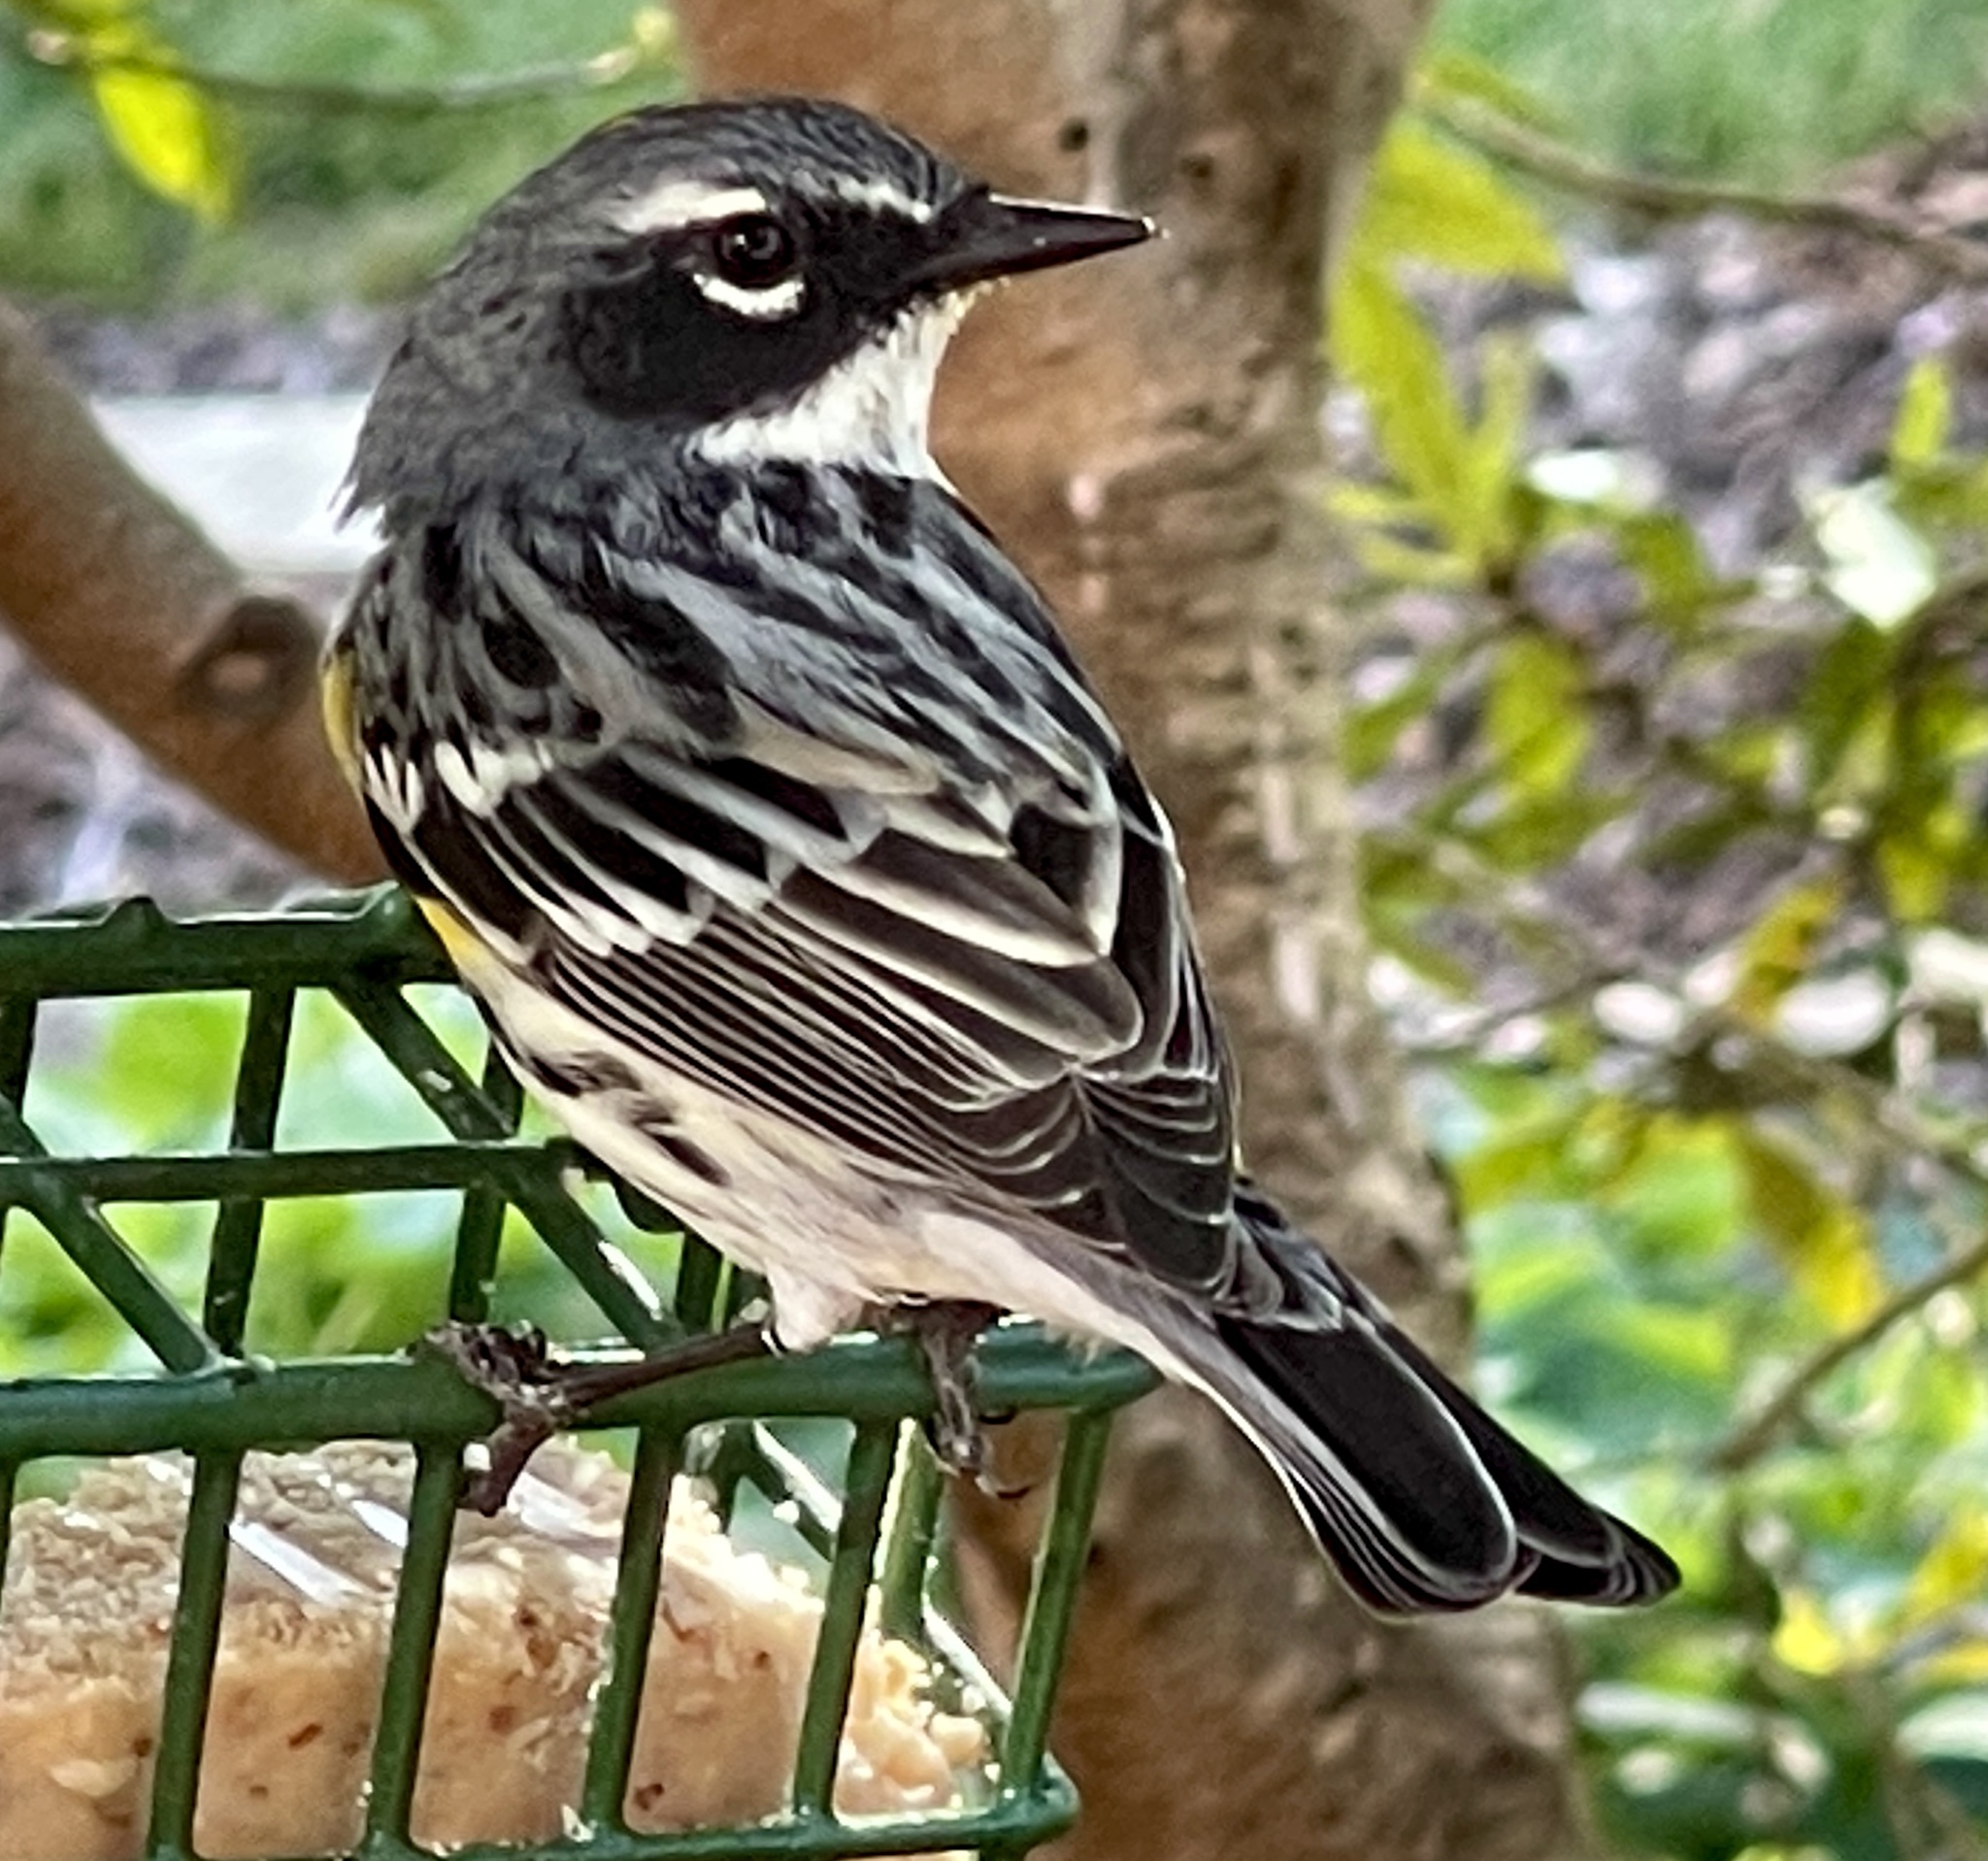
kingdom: Animalia
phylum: Chordata
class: Aves
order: Passeriformes
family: Parulidae
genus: Setophaga
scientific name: Setophaga coronata
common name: Myrtle warbler
